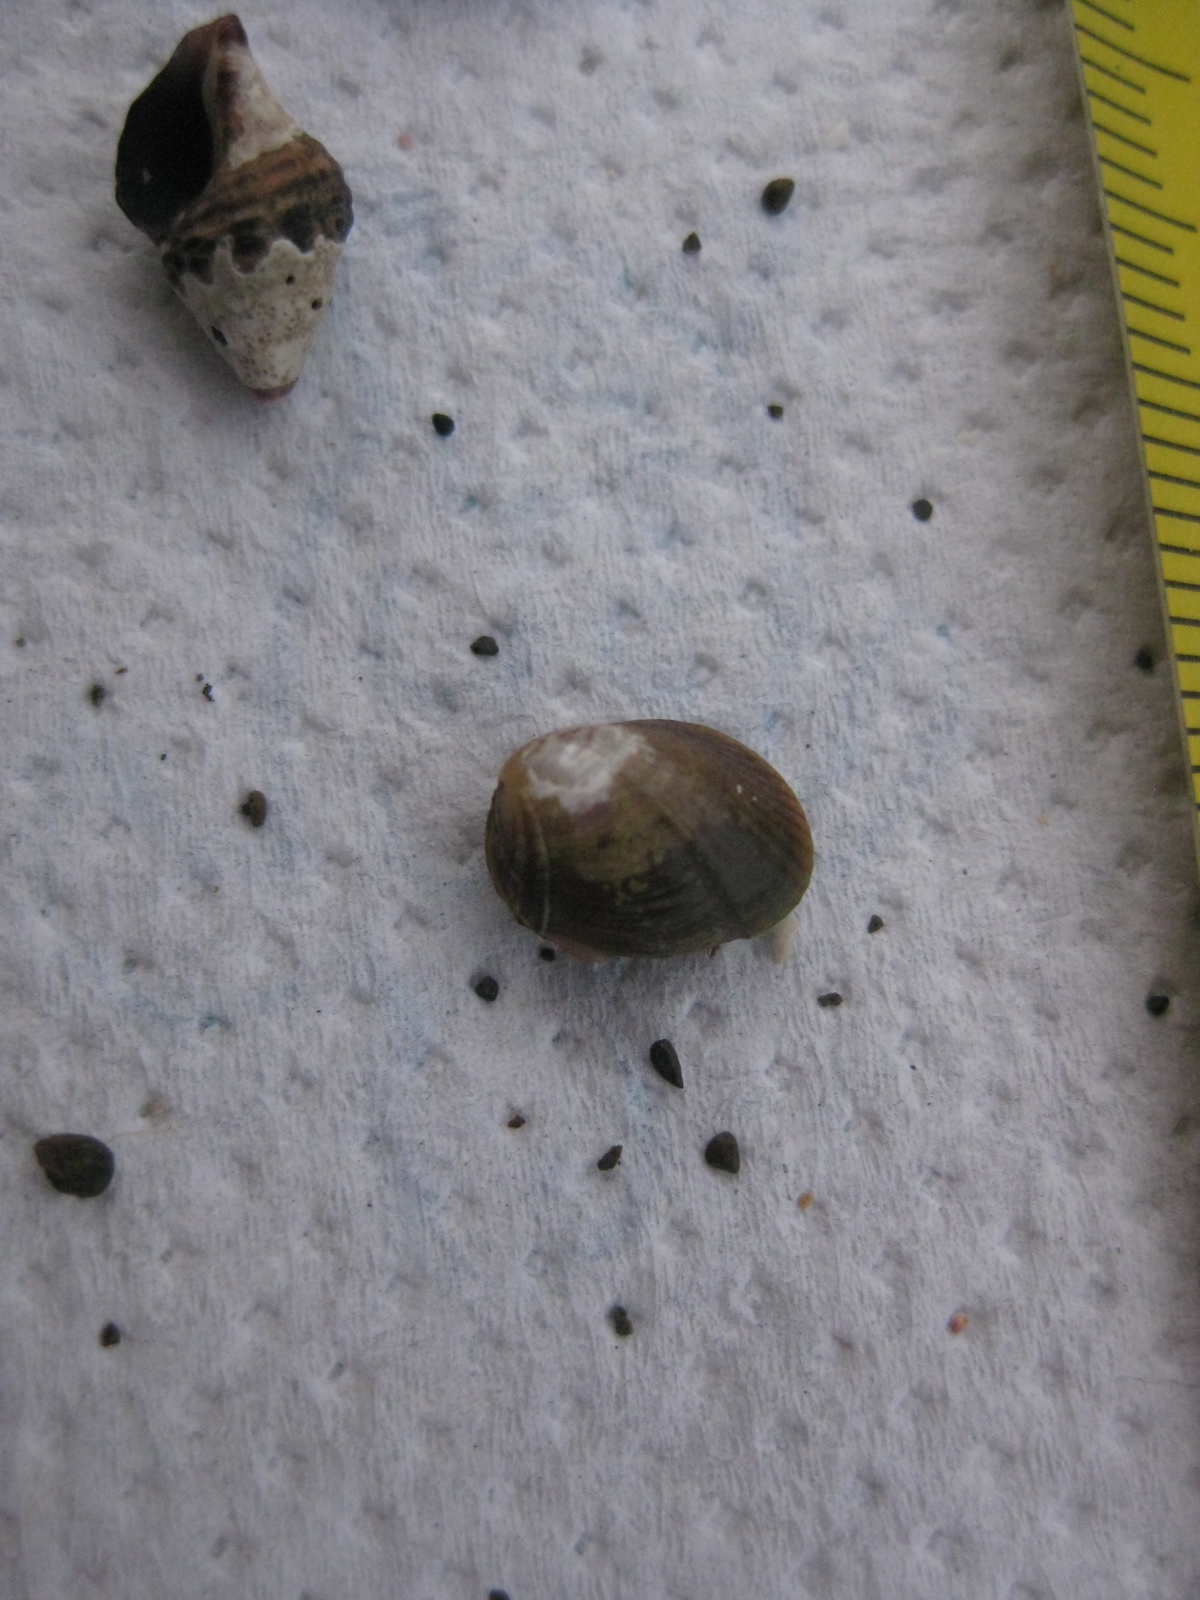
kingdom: Animalia
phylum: Mollusca
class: Bivalvia
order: Mytilida
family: Mytilidae
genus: Musculus
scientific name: Musculus impactus
